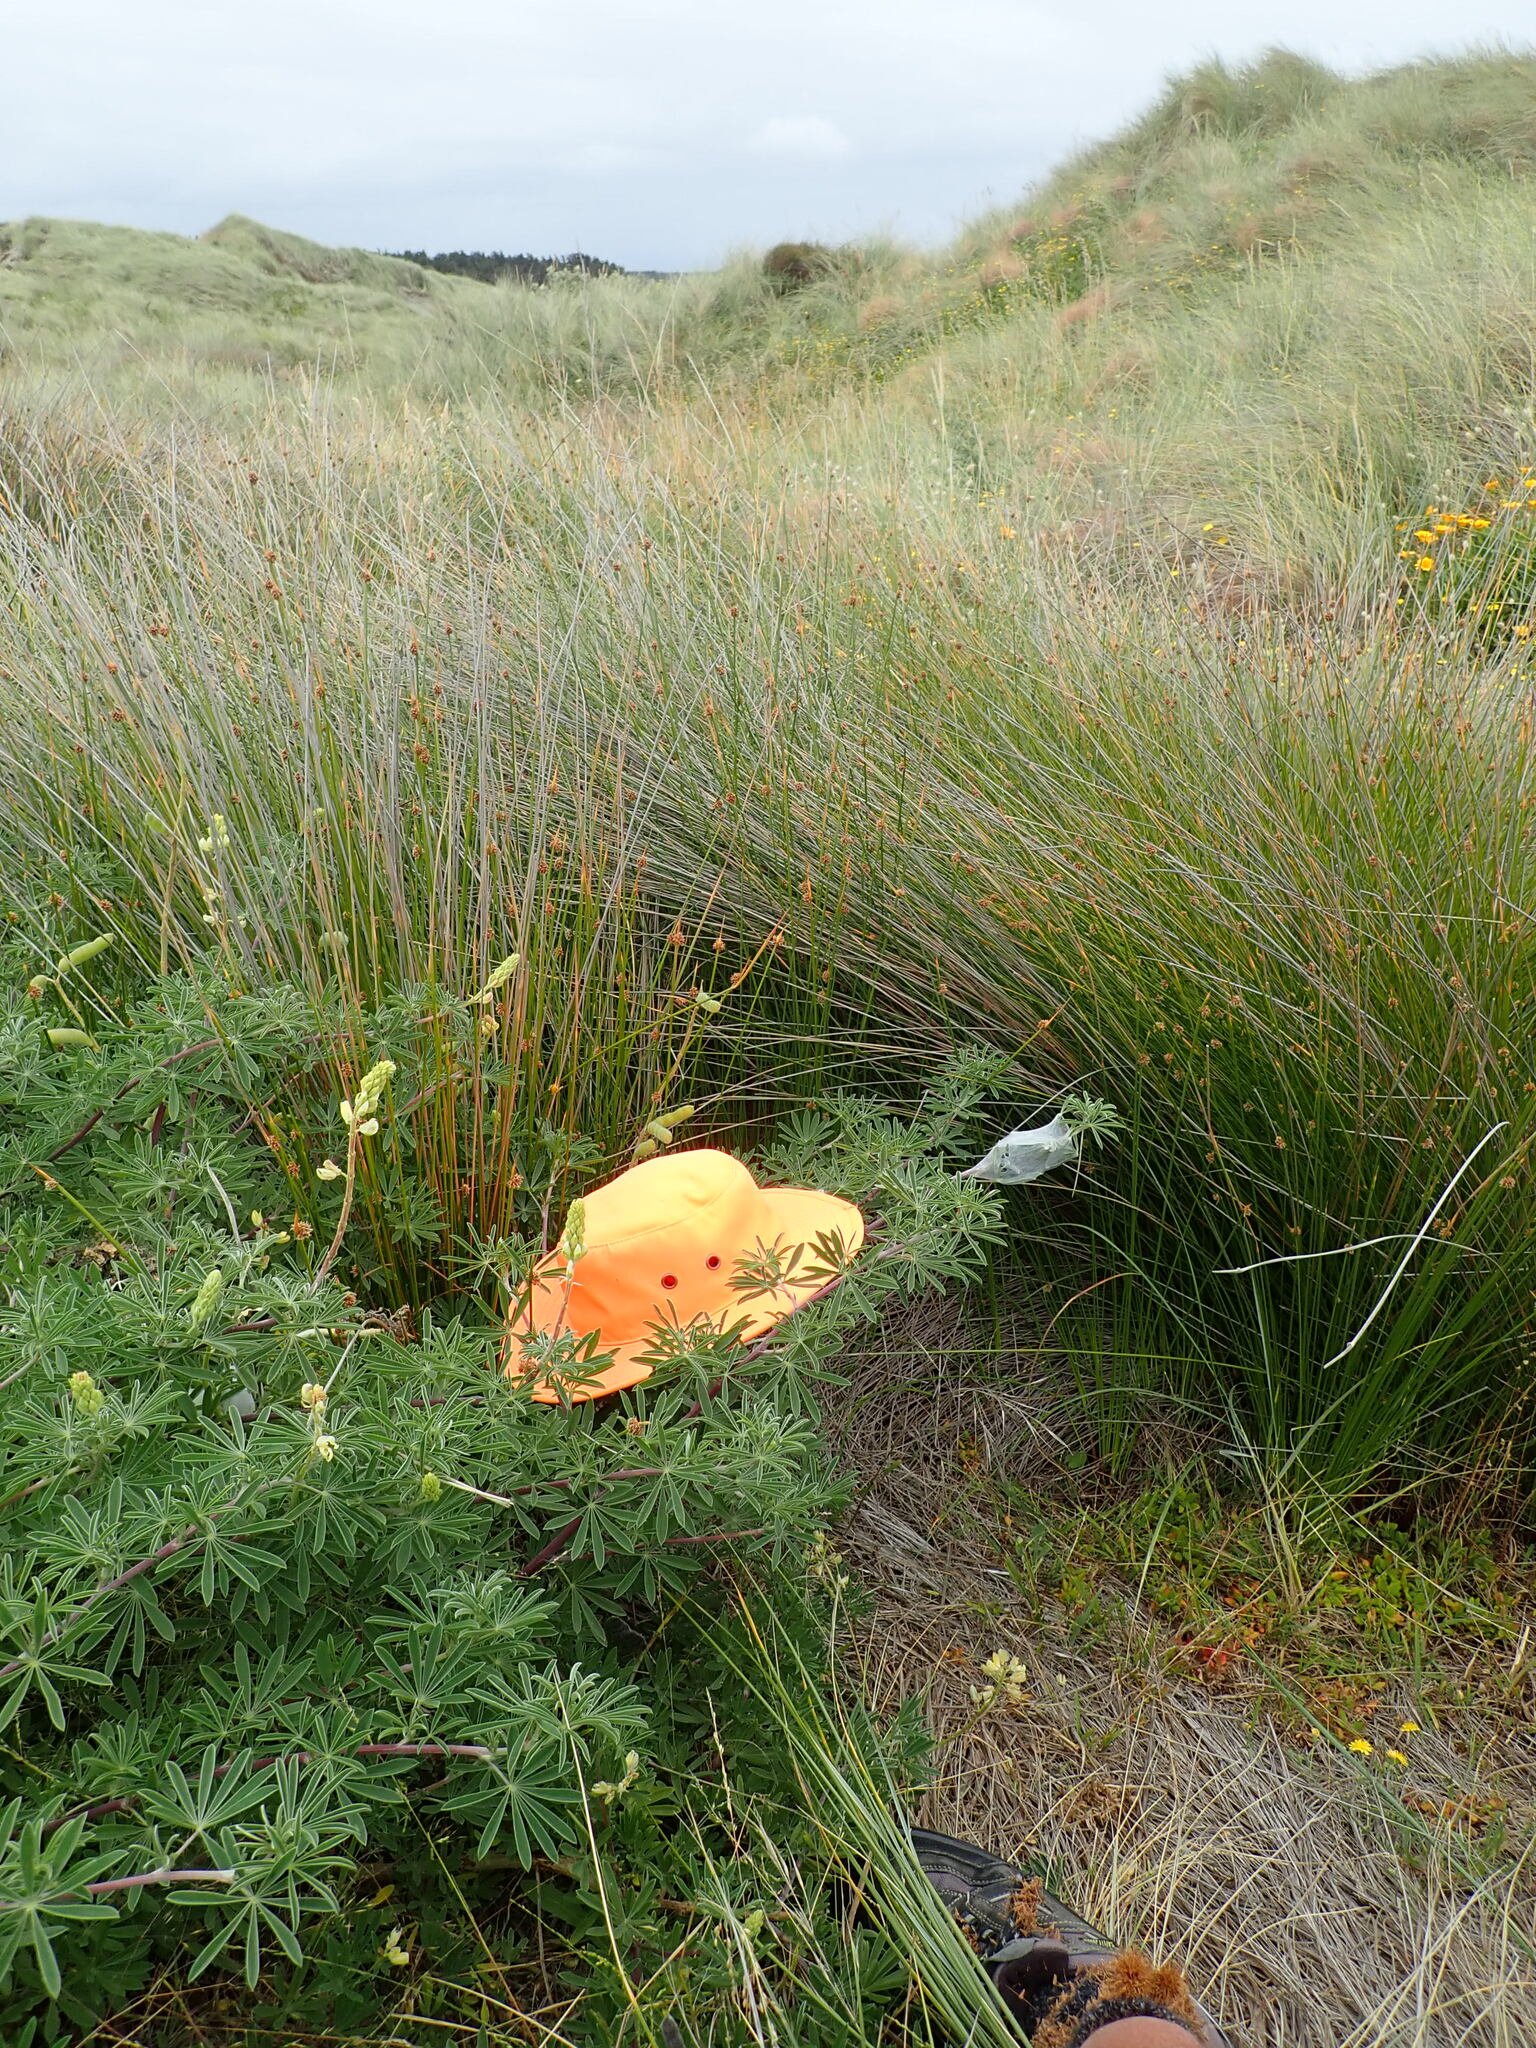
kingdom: Animalia
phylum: Arthropoda
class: Arachnida
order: Araneae
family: Pisauridae
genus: Dolomedes
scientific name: Dolomedes minor
